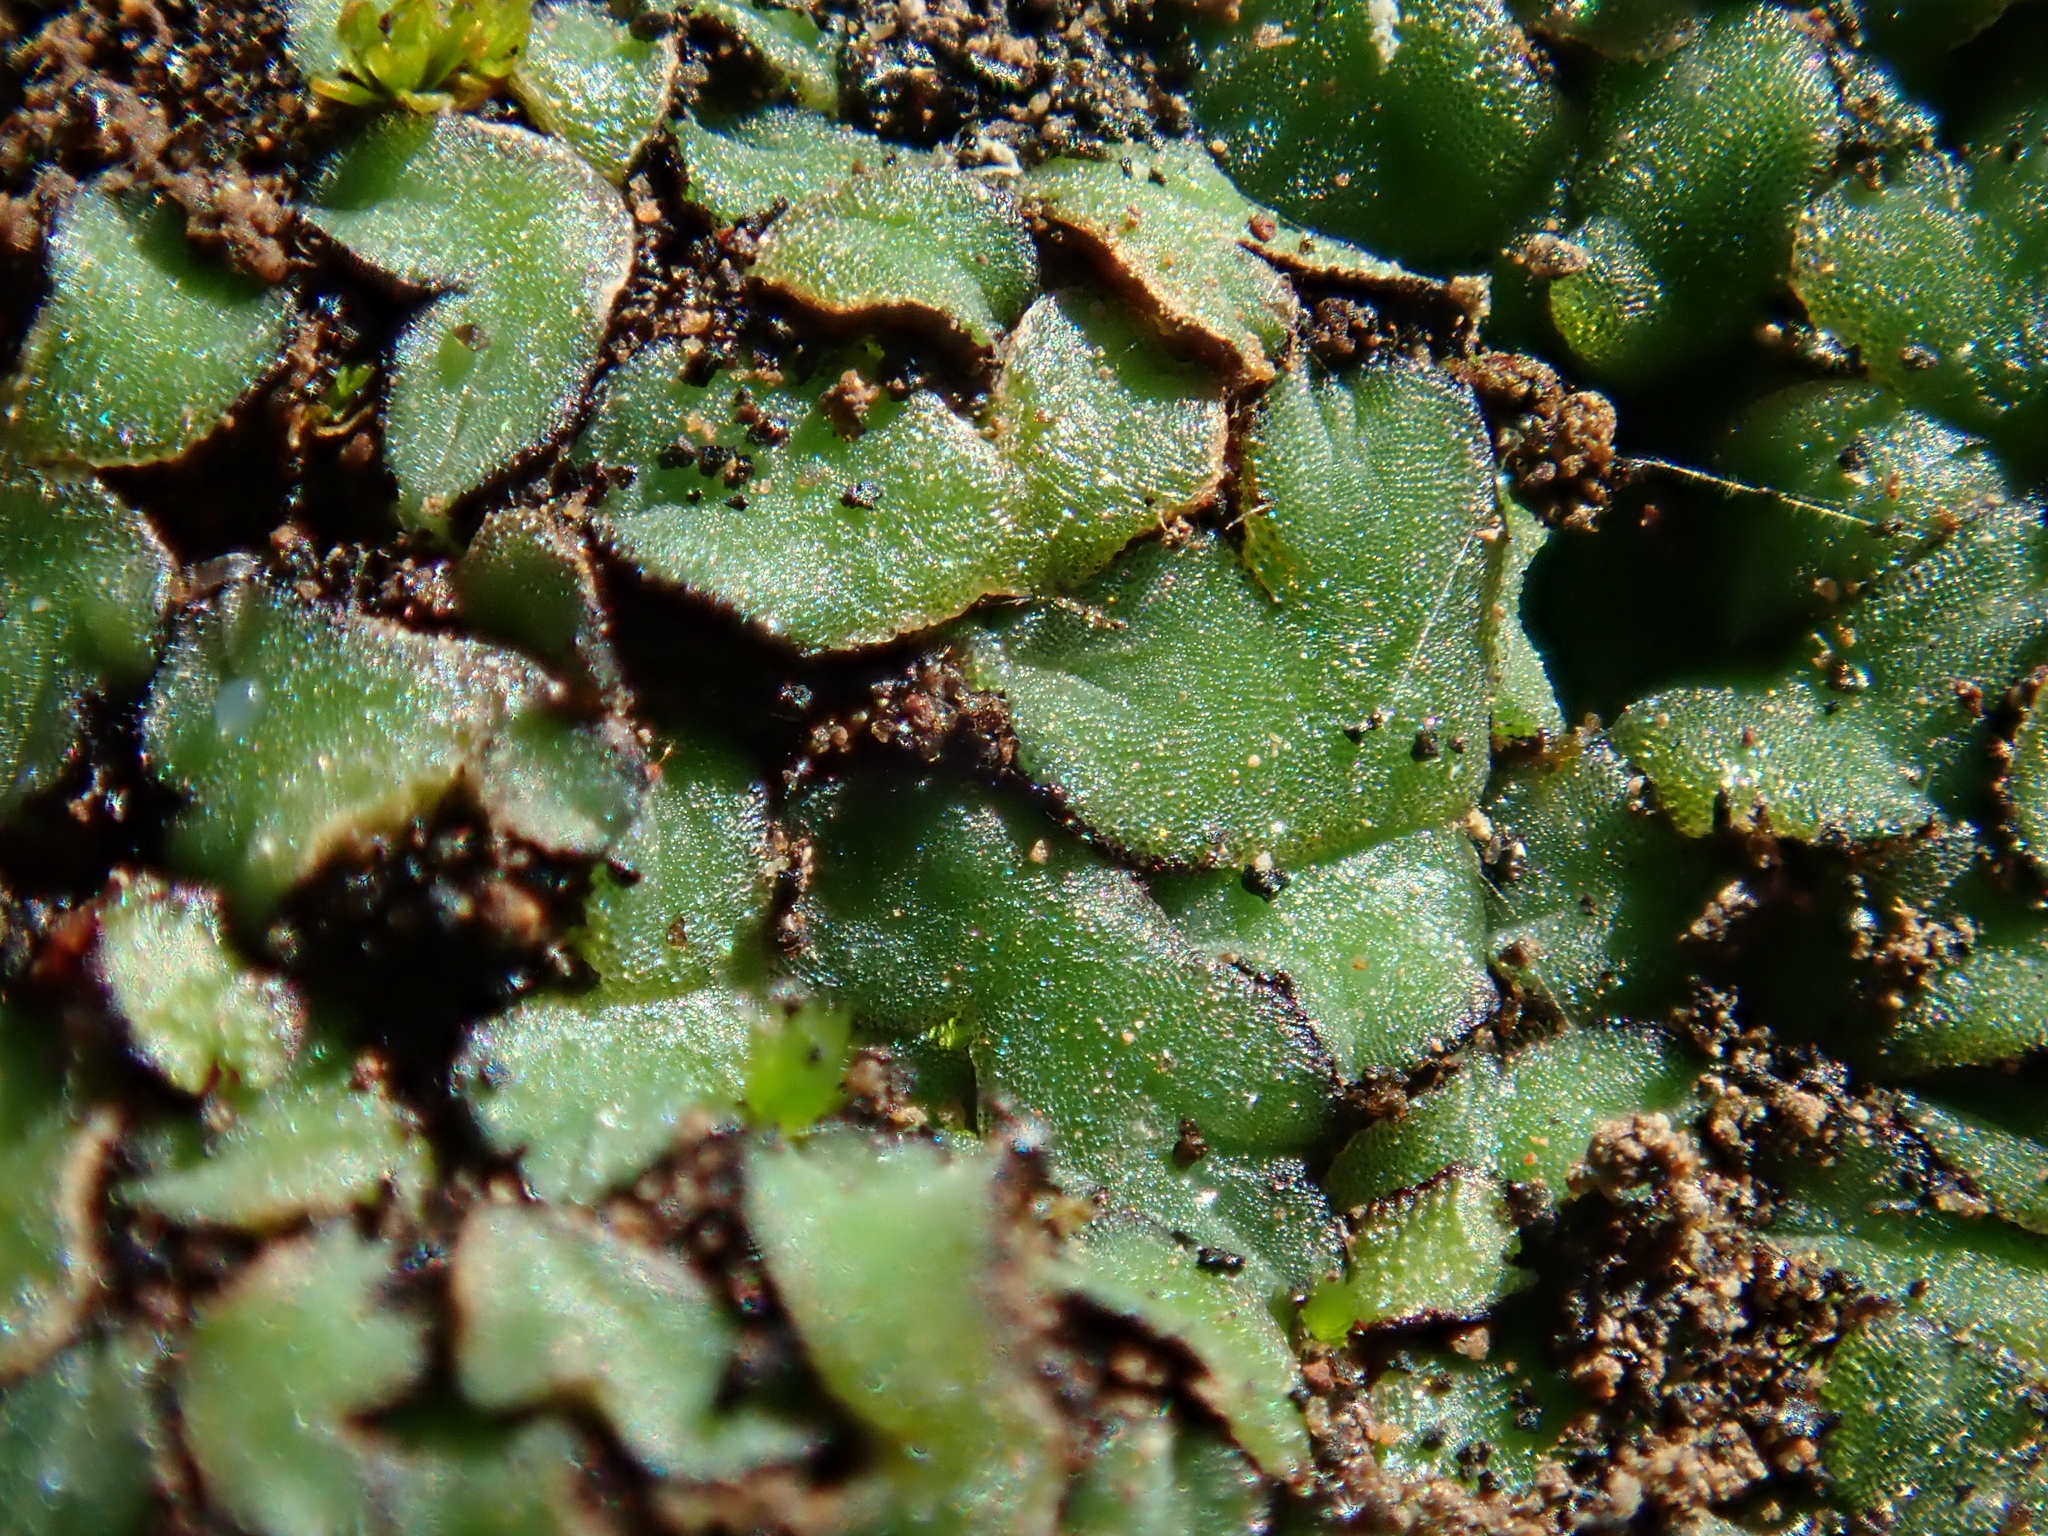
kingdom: Plantae
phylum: Marchantiophyta
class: Marchantiopsida
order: Marchantiales
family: Ricciaceae
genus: Riccia
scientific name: Riccia trabutiana
